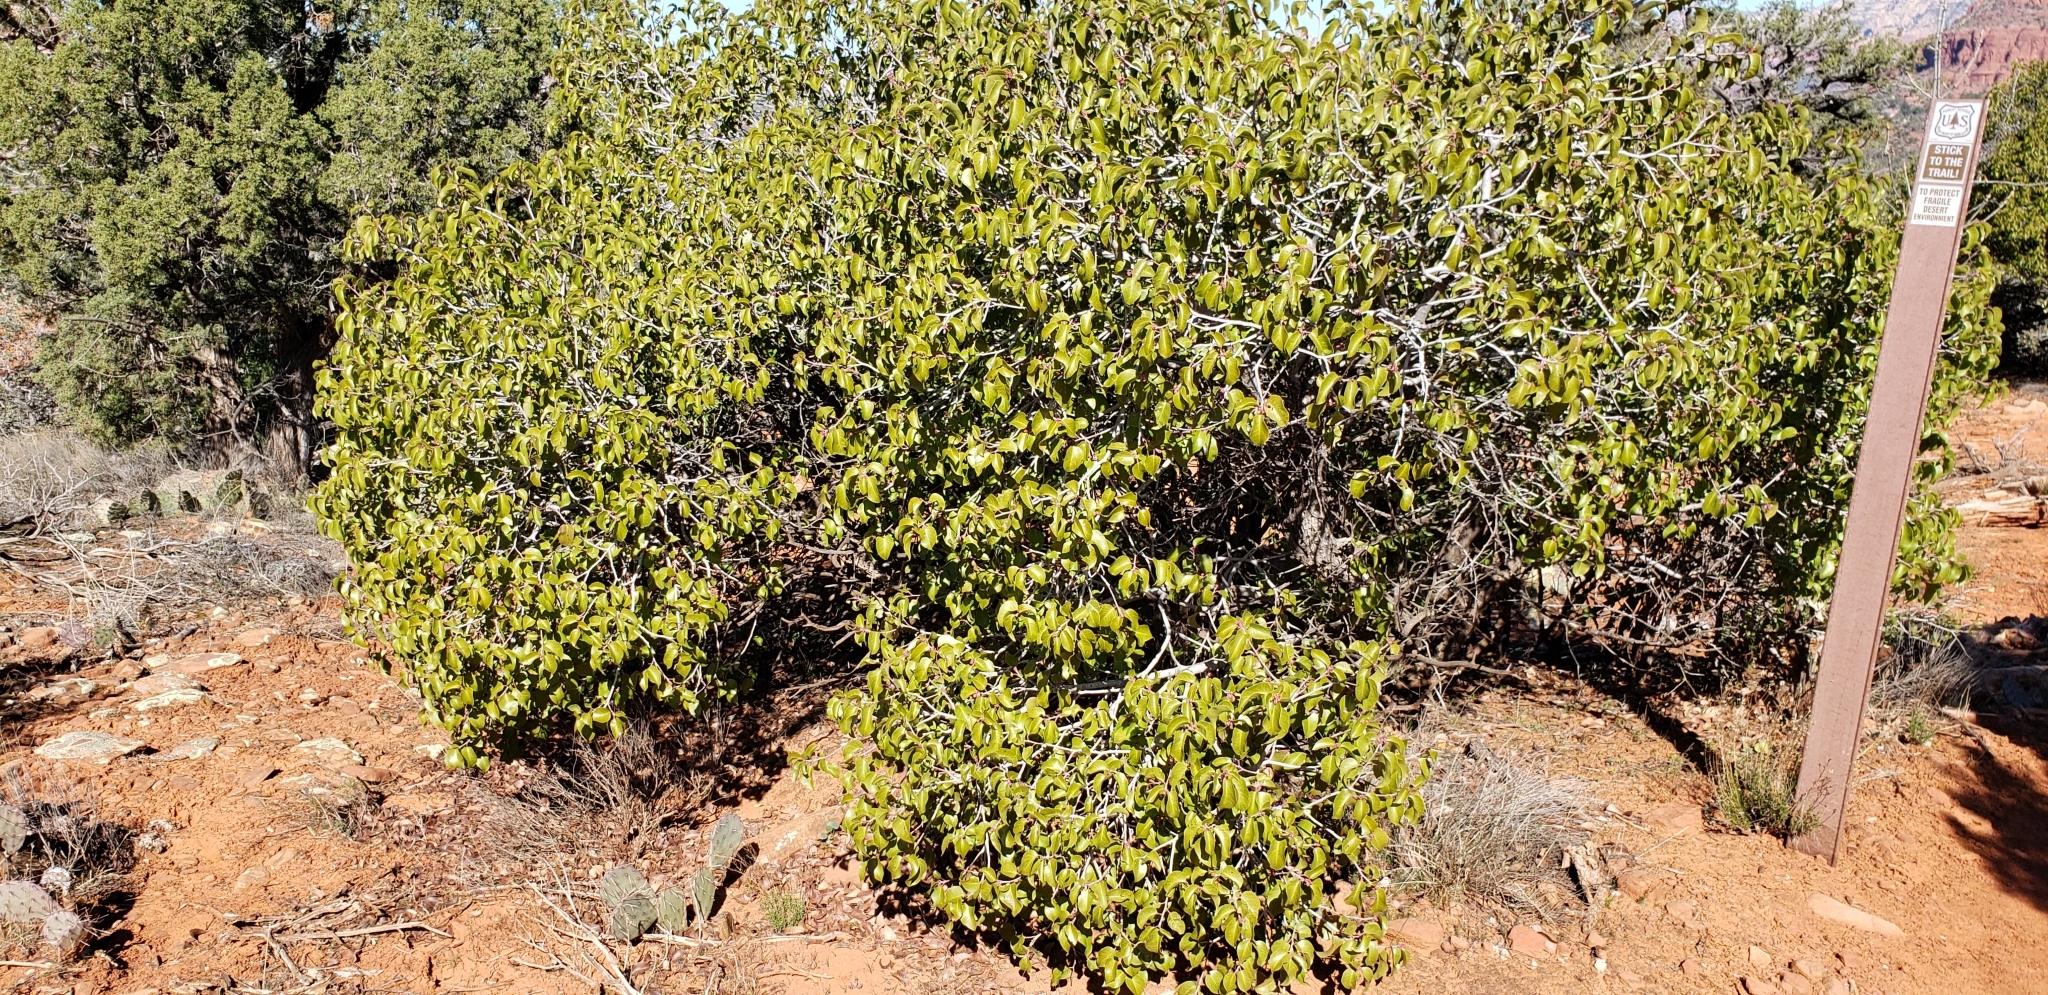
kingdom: Plantae
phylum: Tracheophyta
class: Magnoliopsida
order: Sapindales
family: Anacardiaceae
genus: Rhus
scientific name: Rhus ovata
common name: Sugar sumac
